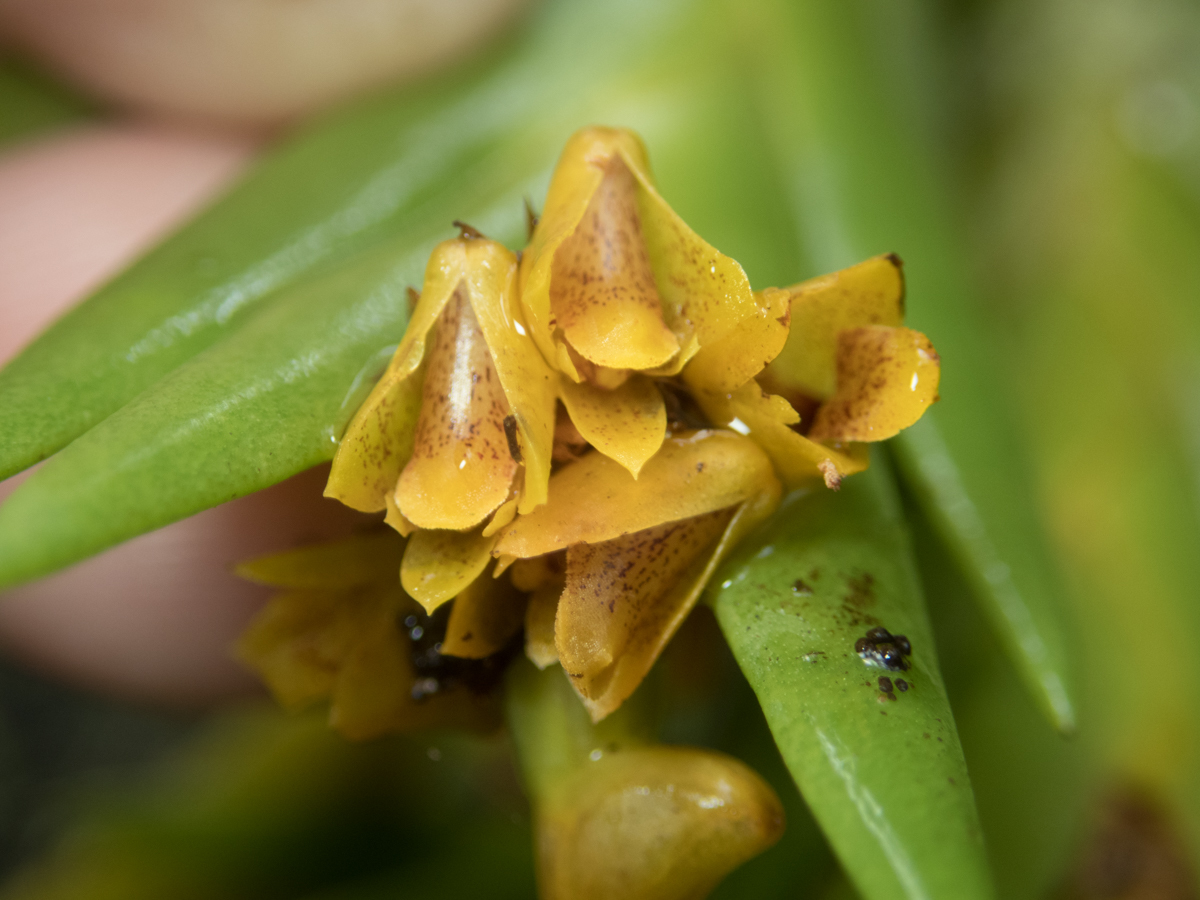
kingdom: Plantae
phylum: Tracheophyta
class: Liliopsida
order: Asparagales
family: Orchidaceae
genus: Oxystophyllum
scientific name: Oxystophyllum carnosum
